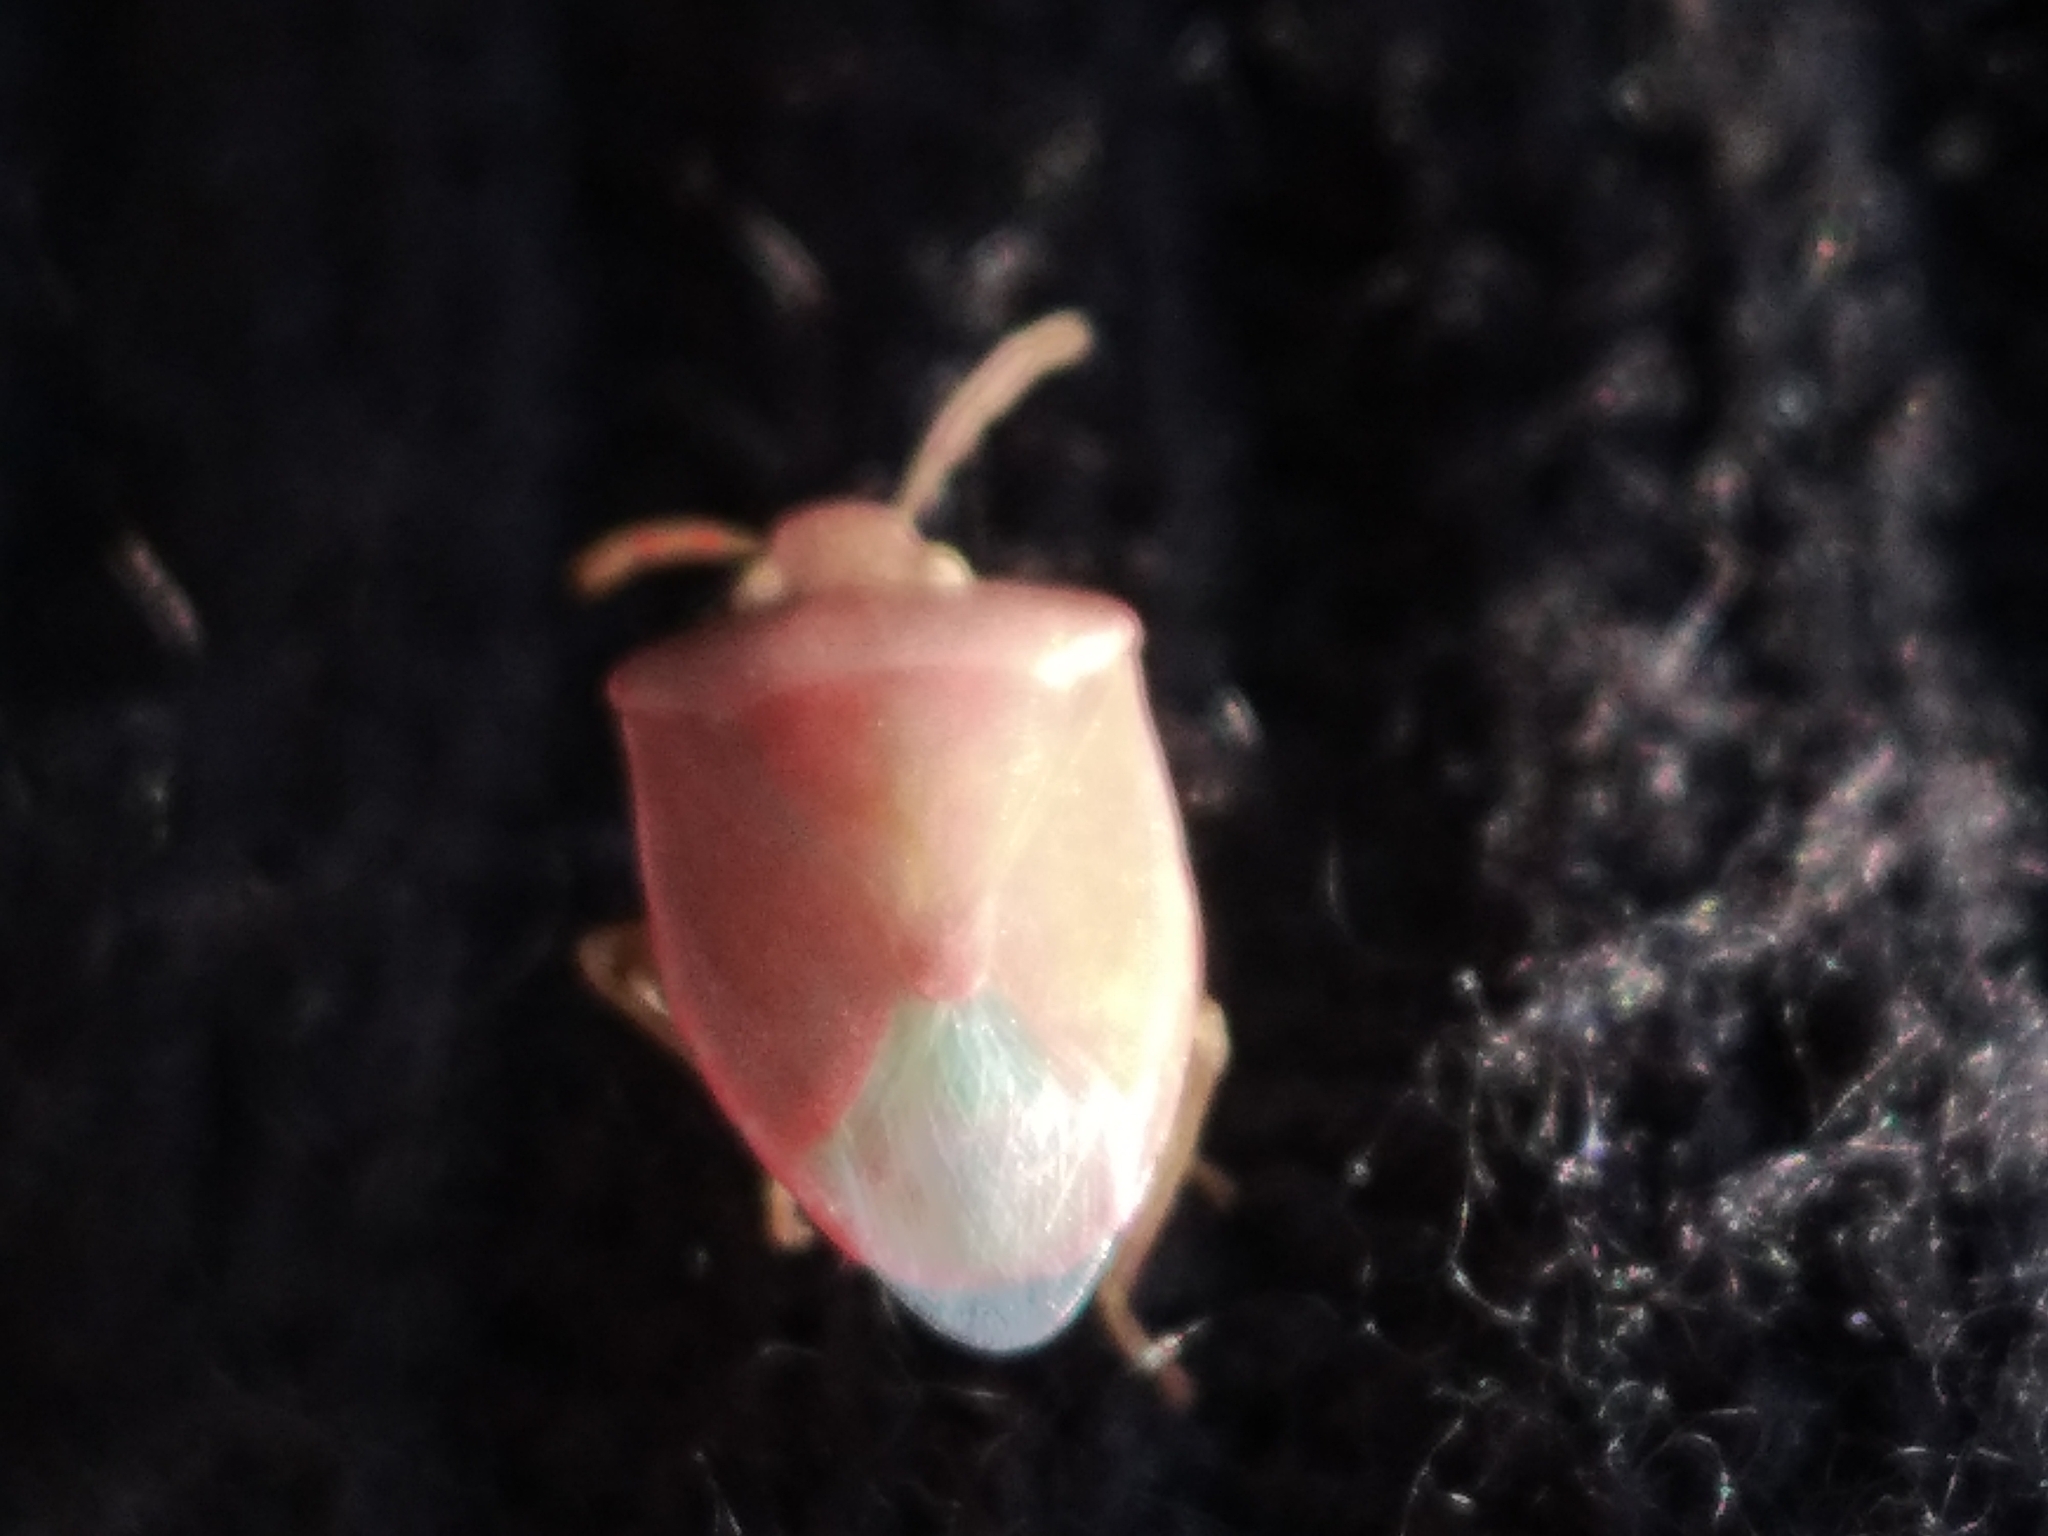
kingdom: Animalia
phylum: Arthropoda
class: Insecta
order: Hemiptera
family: Pentatomidae
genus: Acrosternum
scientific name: Acrosternum heegeri
